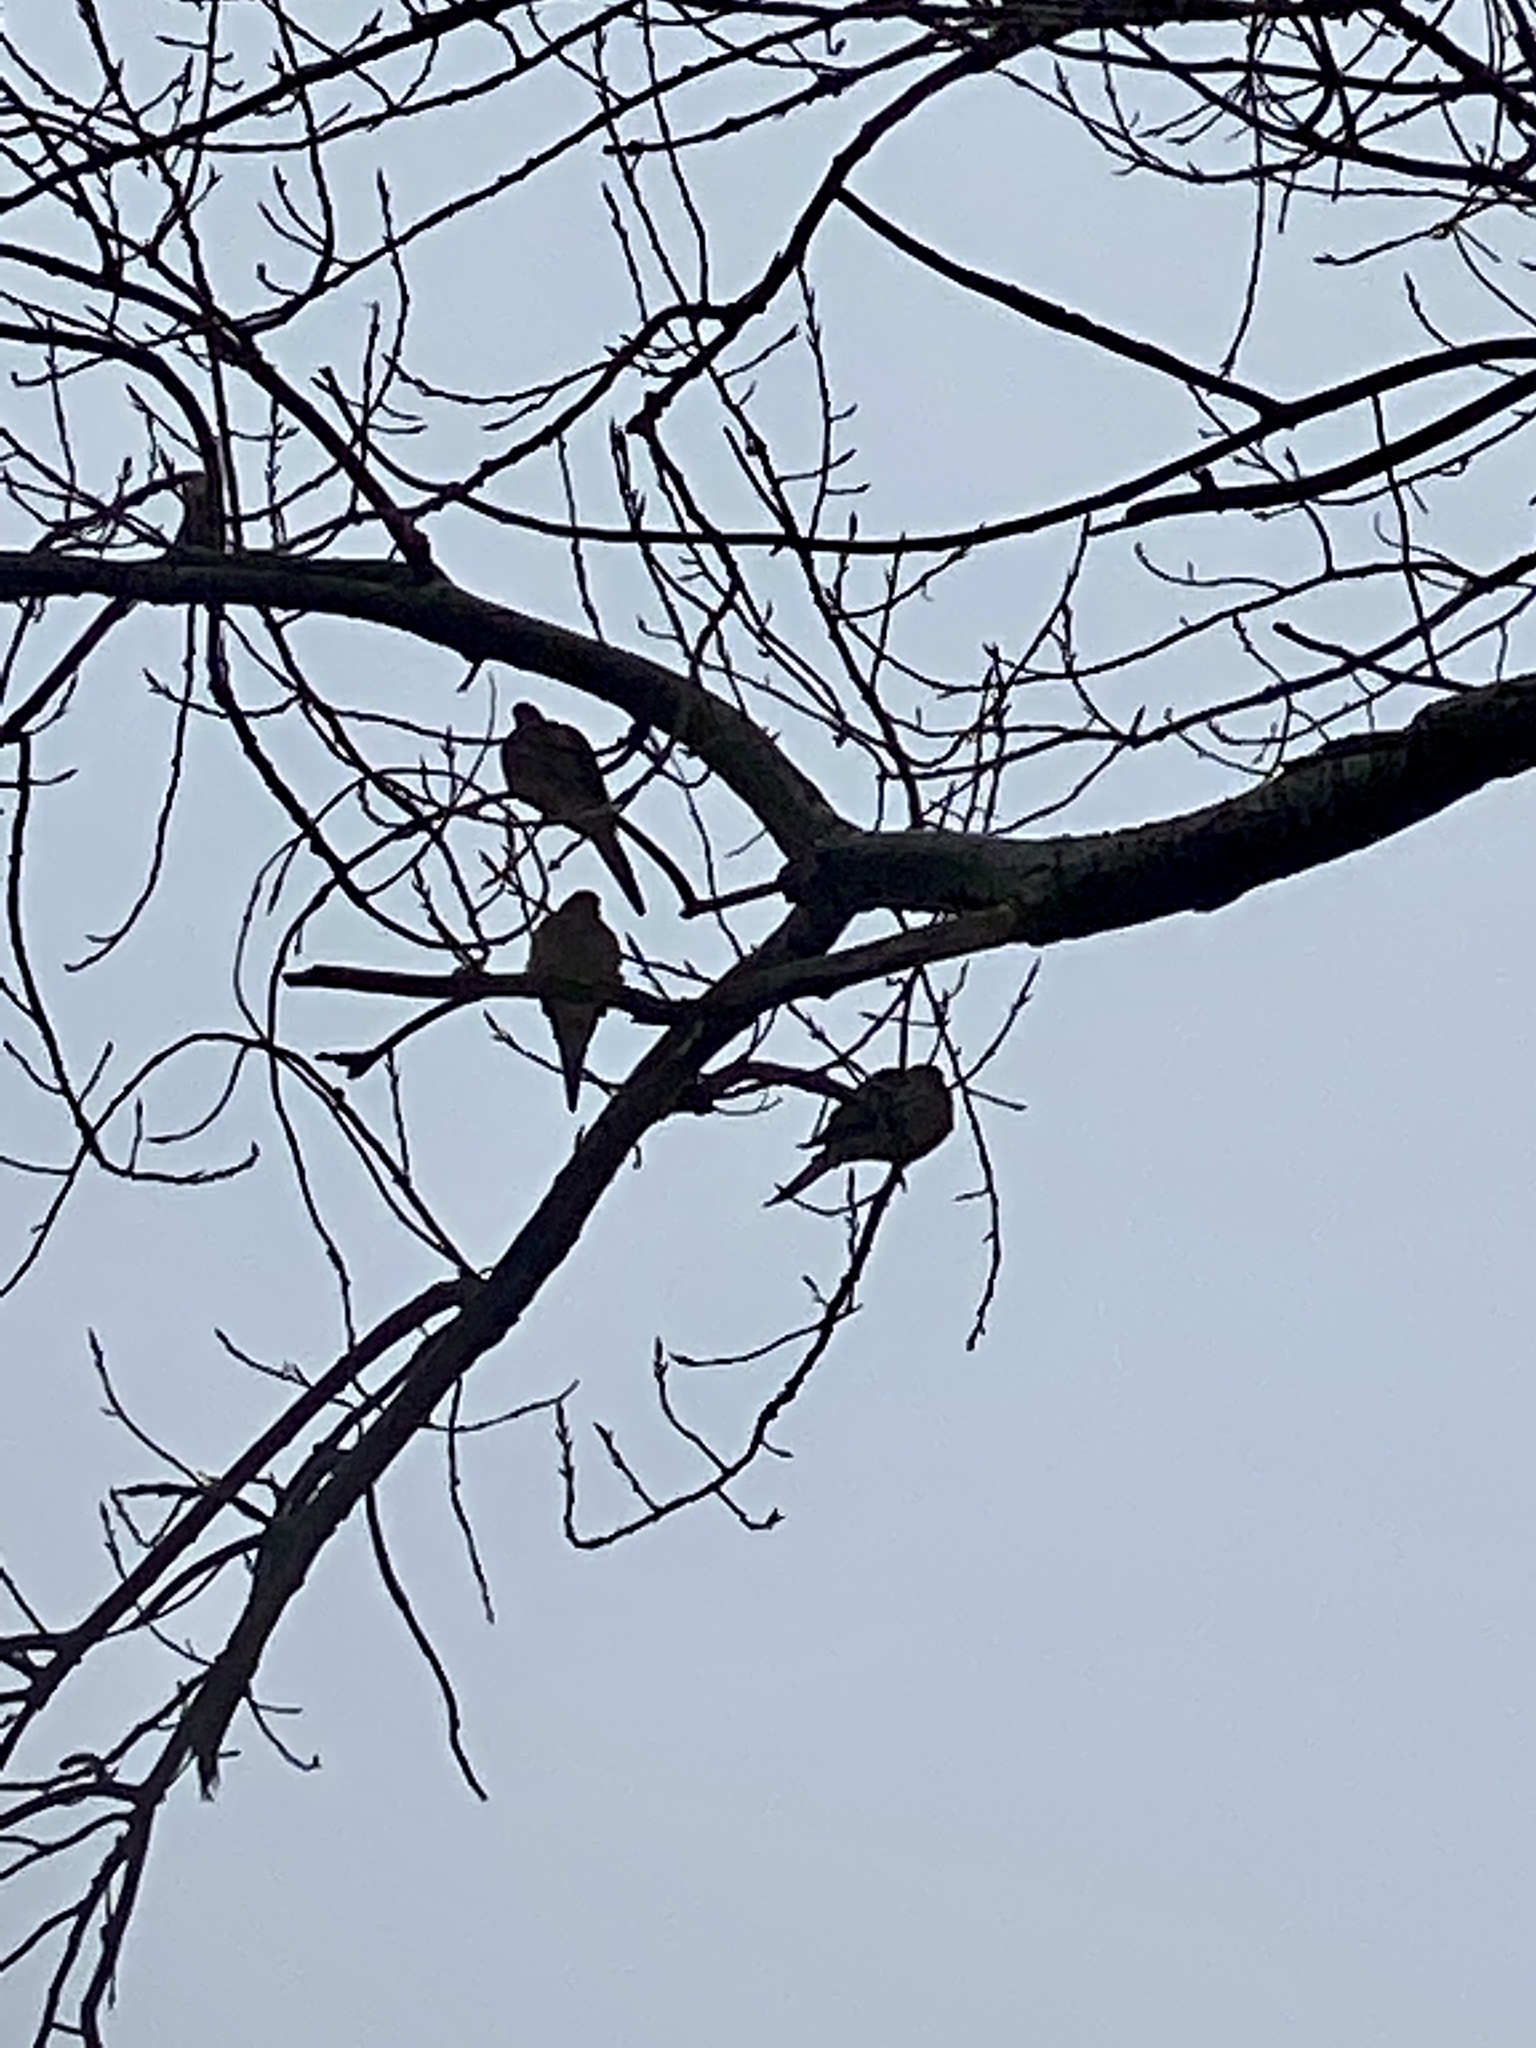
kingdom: Animalia
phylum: Chordata
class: Aves
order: Columbiformes
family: Columbidae
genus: Zenaida
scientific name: Zenaida macroura
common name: Mourning dove
